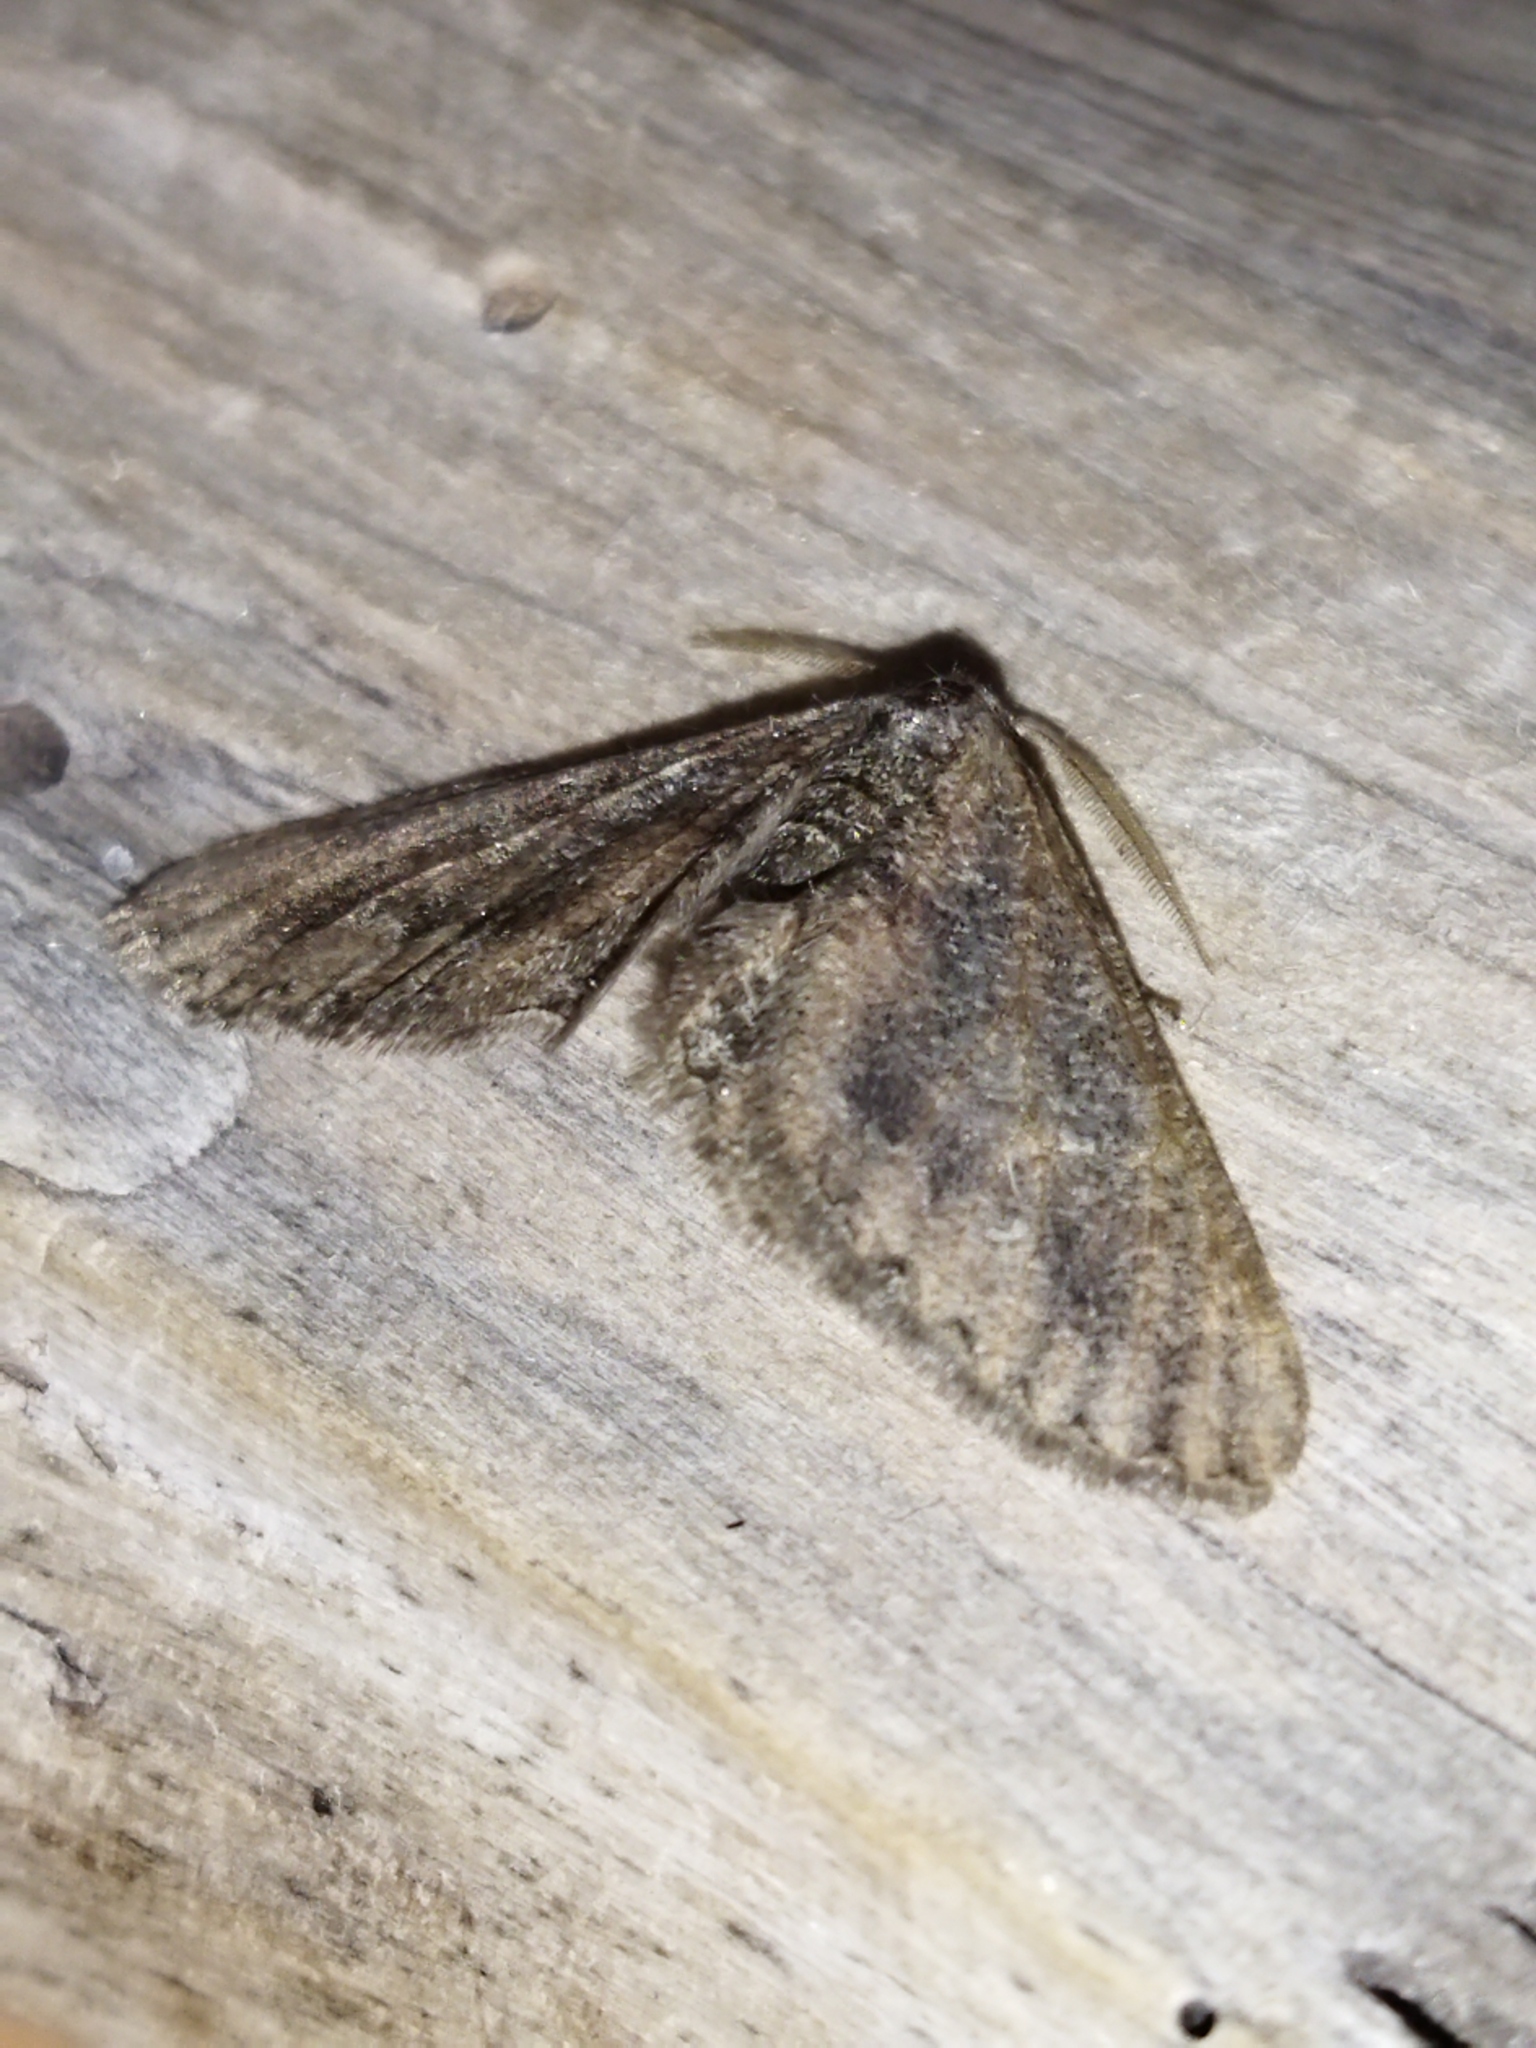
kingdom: Animalia
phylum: Arthropoda
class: Insecta
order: Lepidoptera
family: Geometridae
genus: Agriopis
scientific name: Agriopis bajaria
